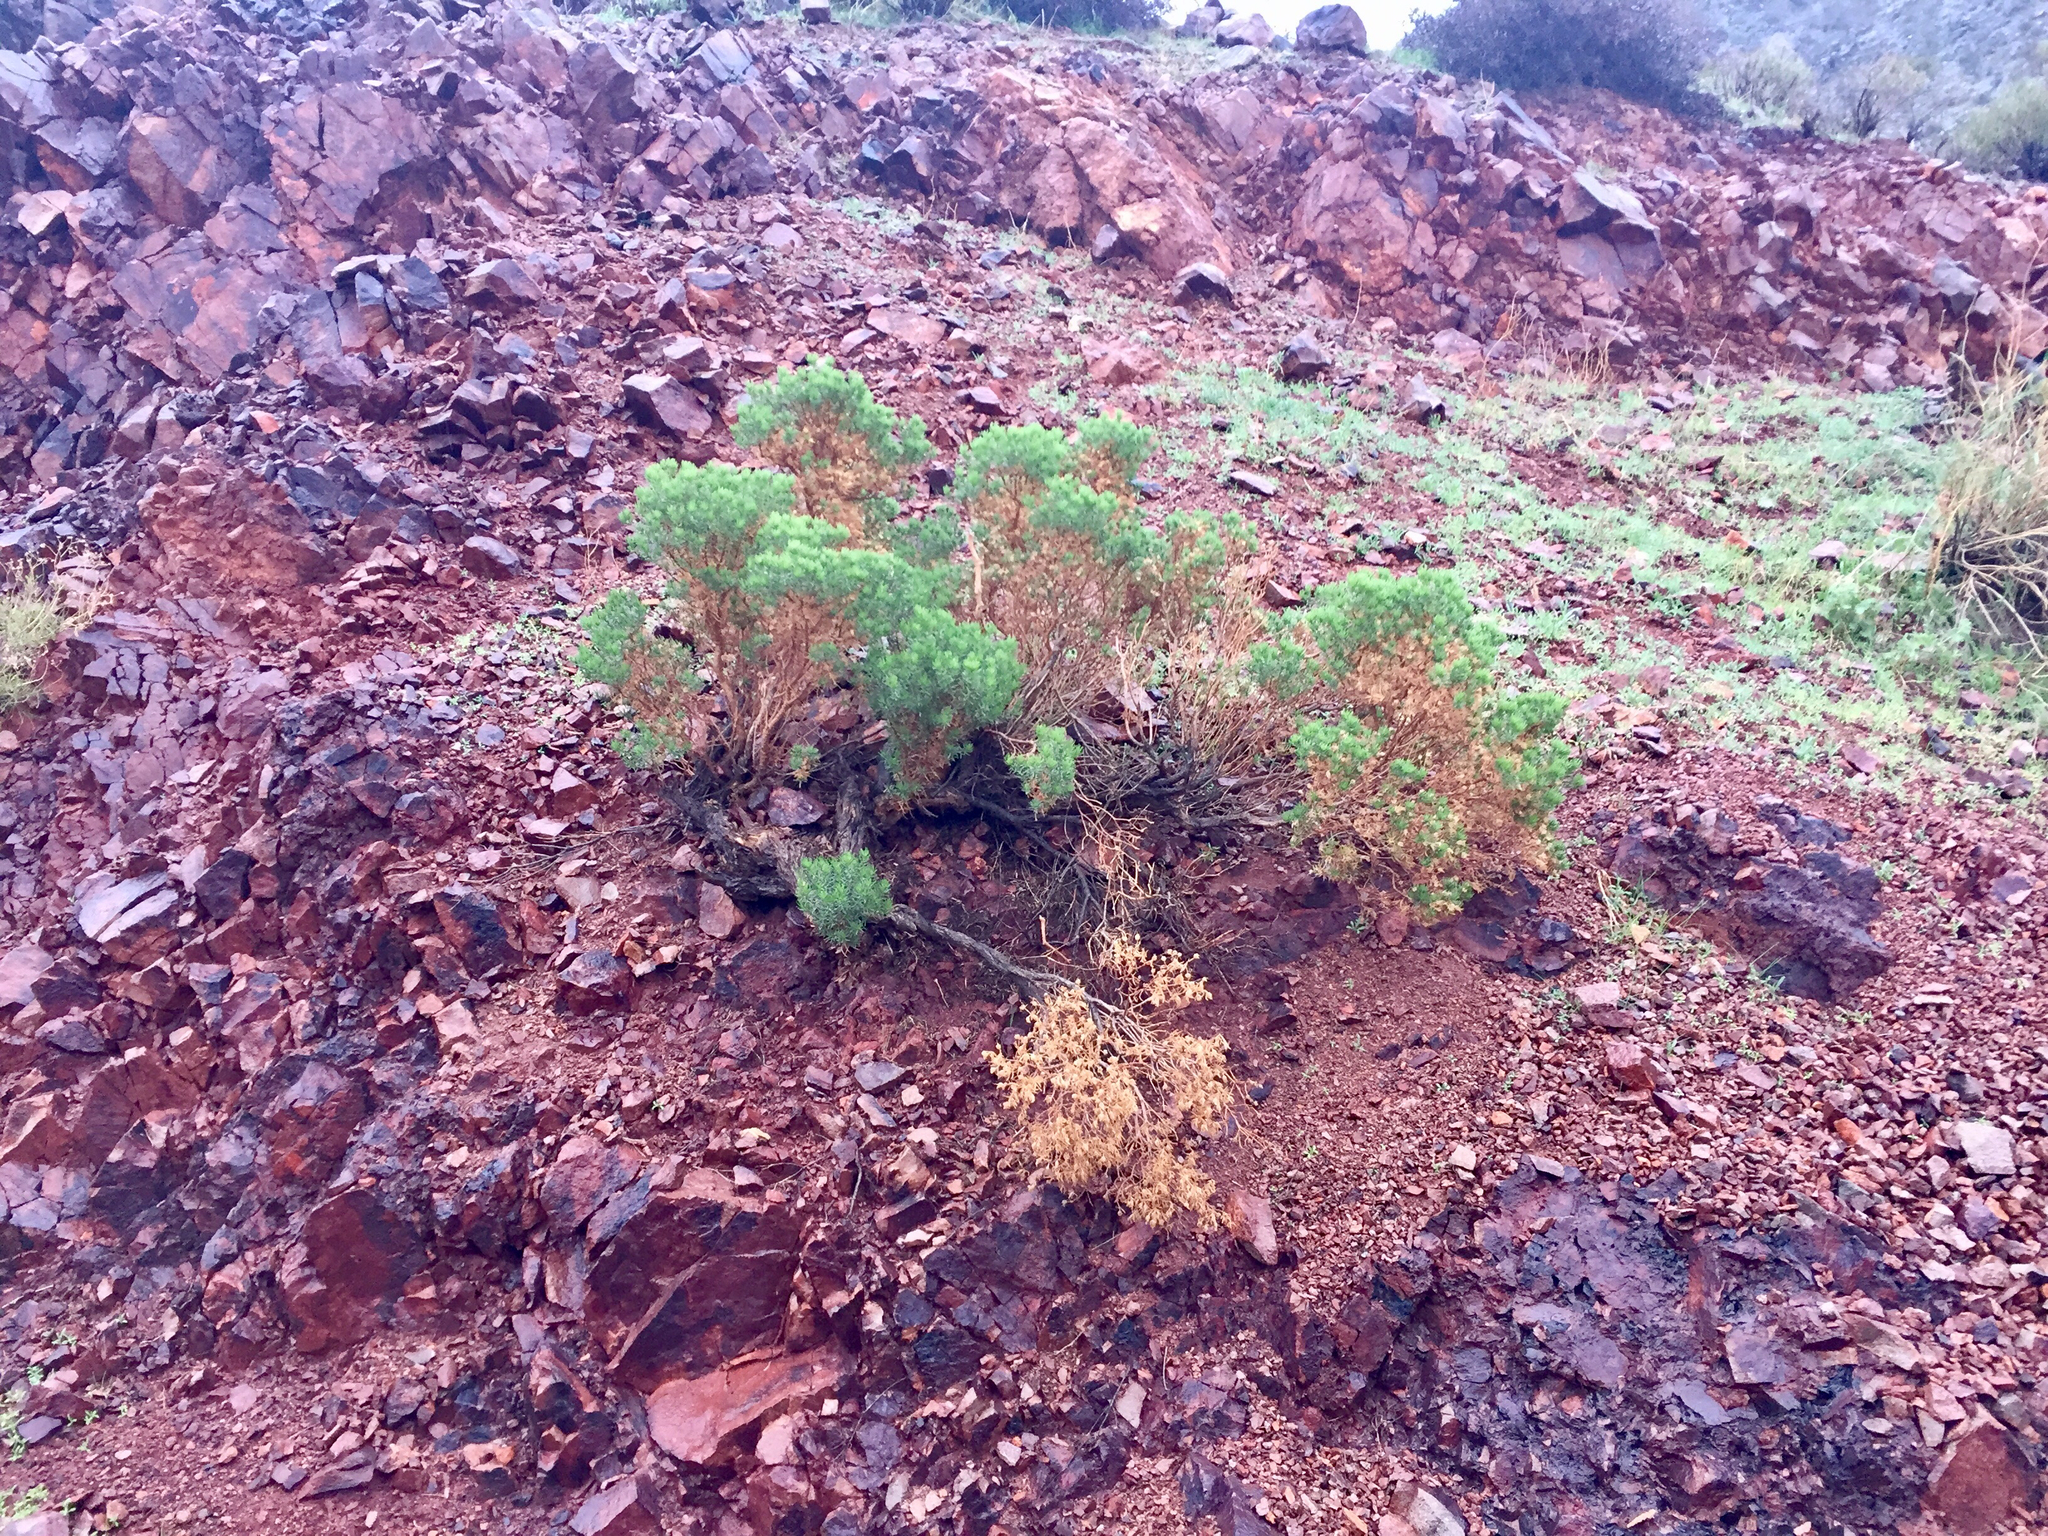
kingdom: Plantae
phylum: Tracheophyta
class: Magnoliopsida
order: Asterales
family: Asteraceae
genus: Peucephyllum
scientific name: Peucephyllum schottii
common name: Pygmy-cedar
